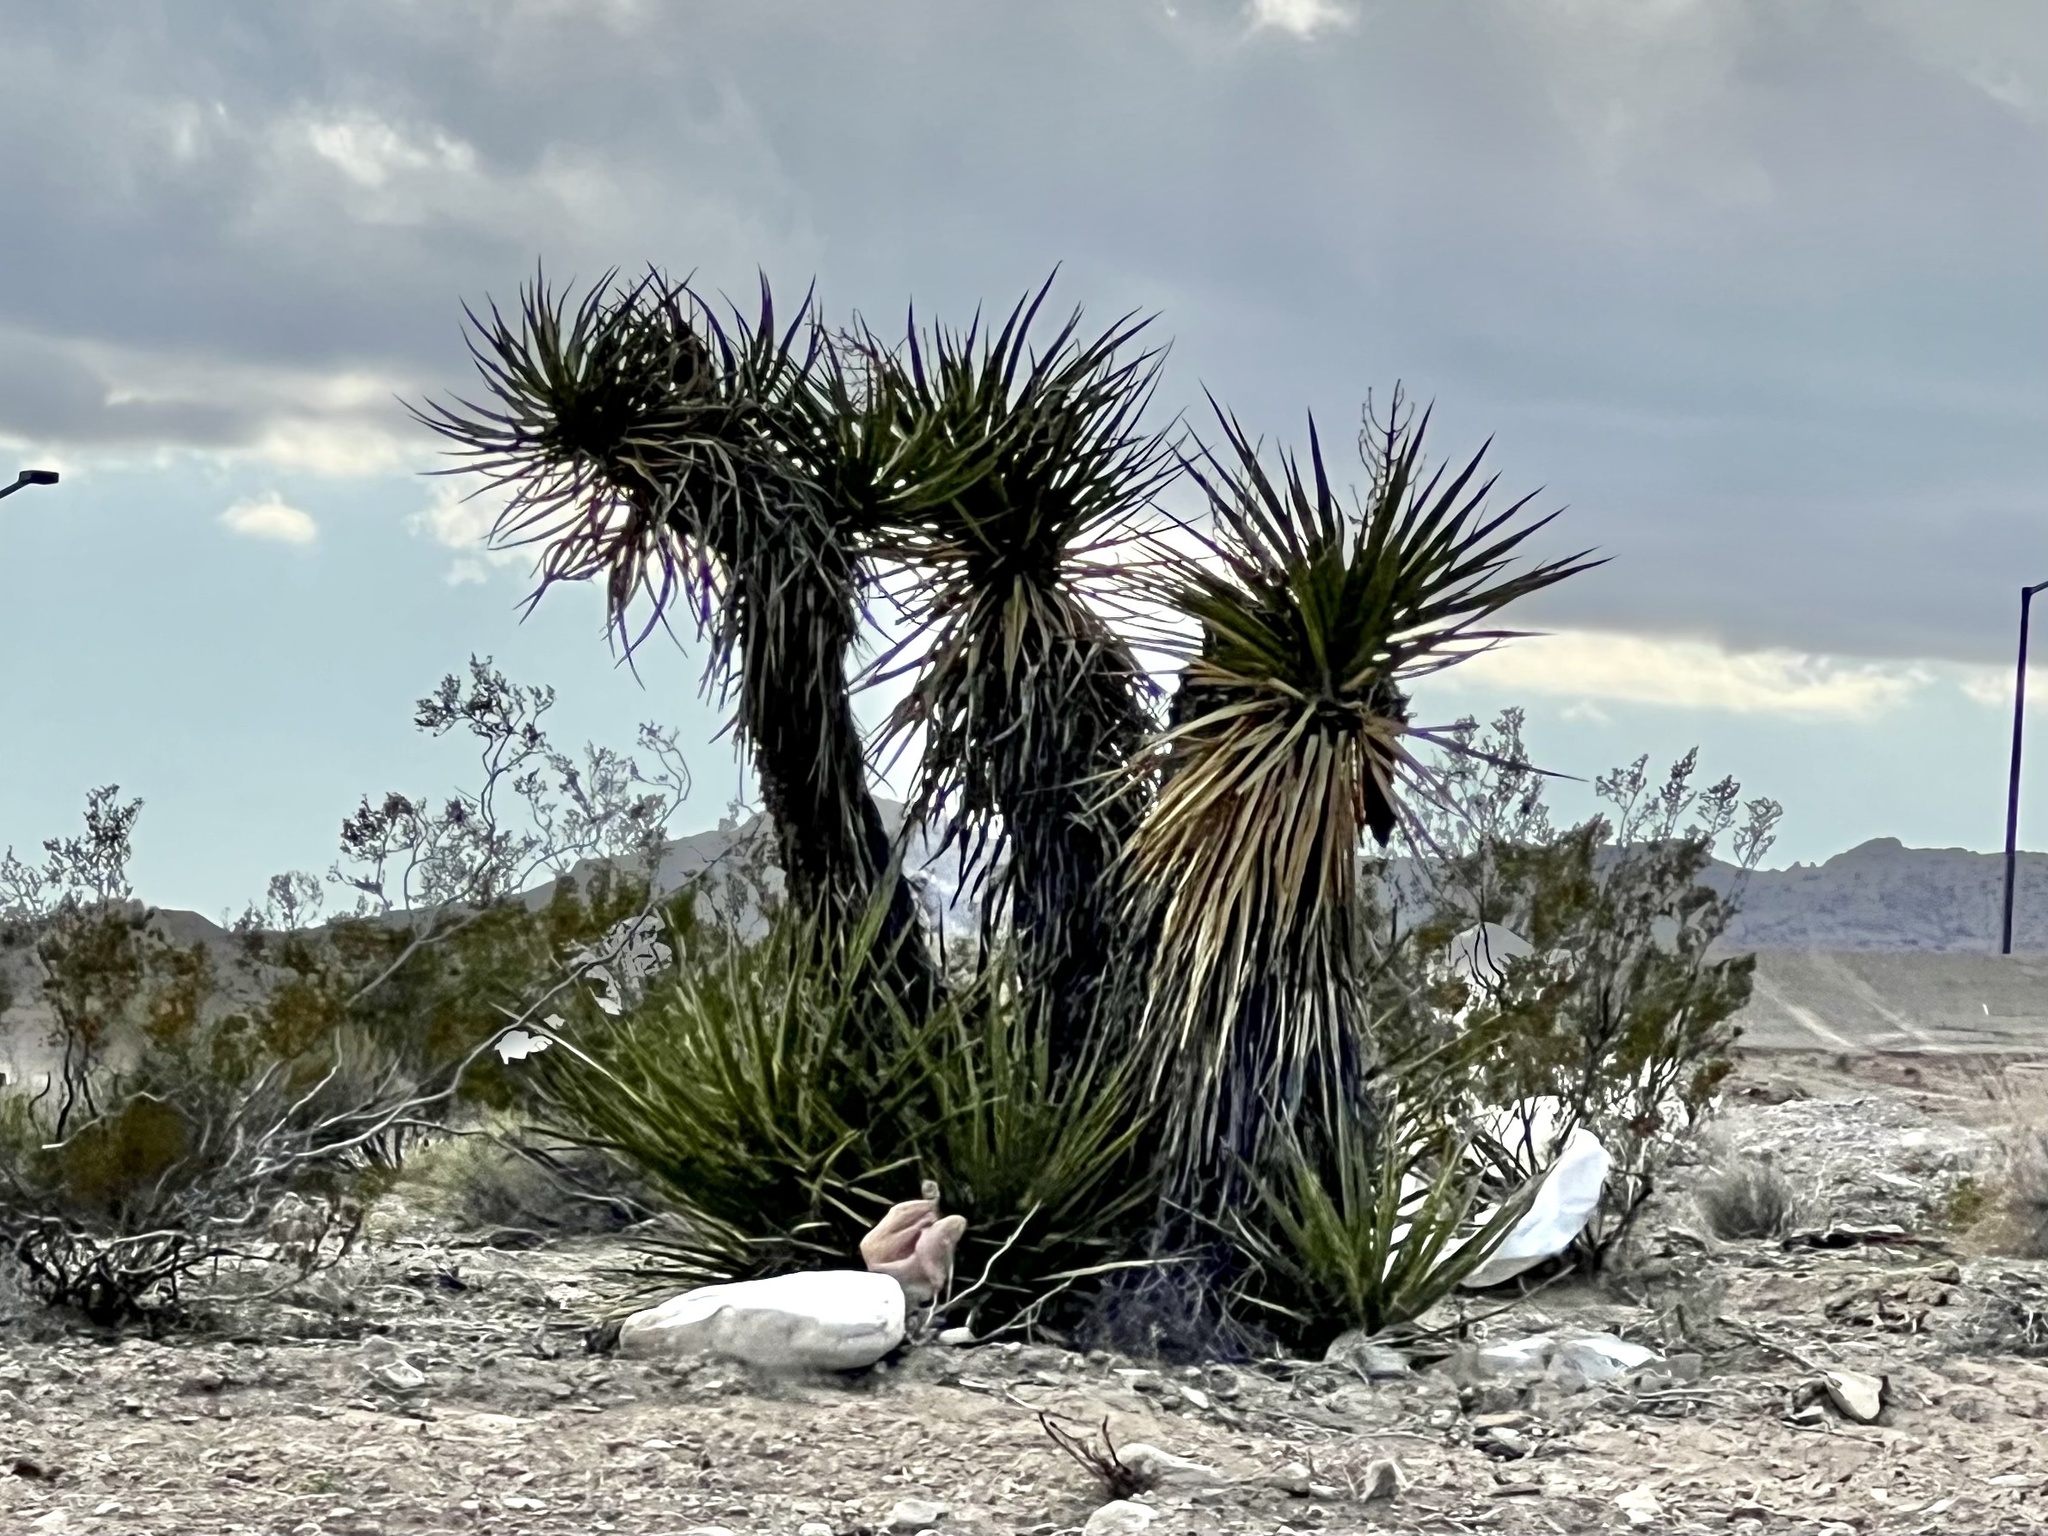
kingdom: Plantae
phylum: Tracheophyta
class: Liliopsida
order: Asparagales
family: Asparagaceae
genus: Yucca
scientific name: Yucca schidigera
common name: Mojave yucca
